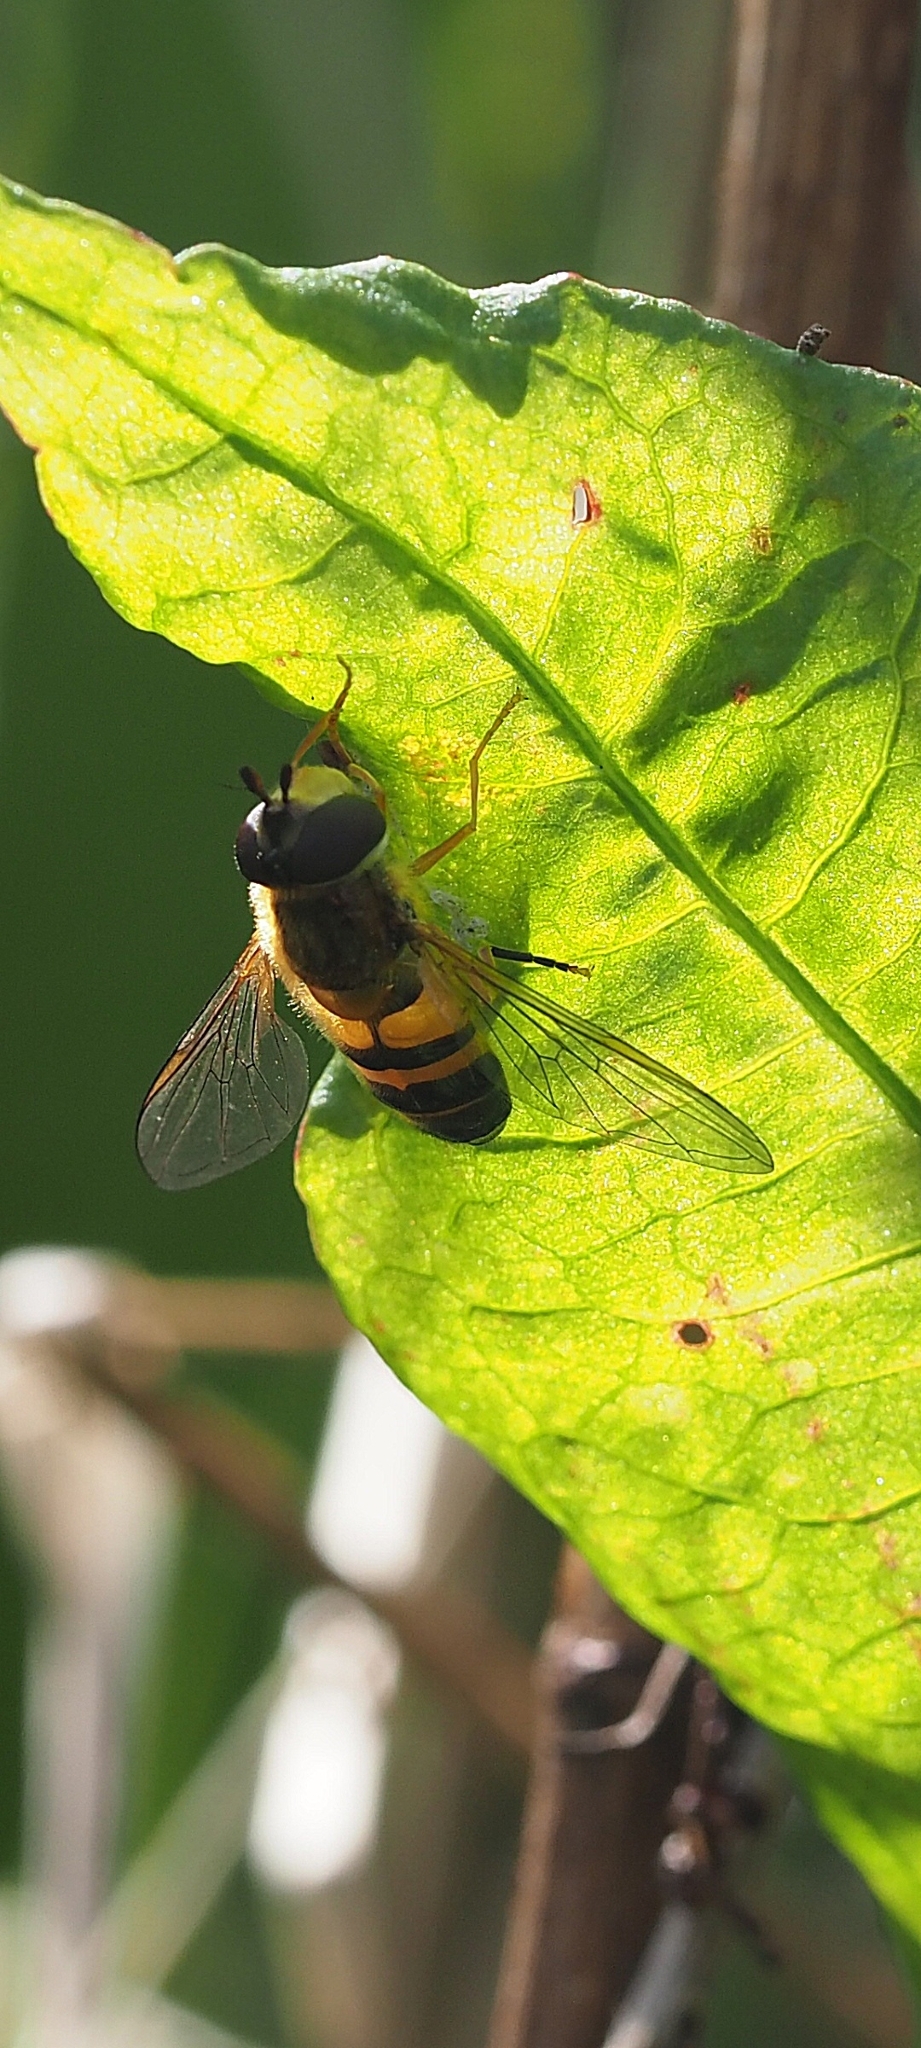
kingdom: Animalia
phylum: Arthropoda
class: Insecta
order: Diptera
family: Syrphidae
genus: Epistrophe
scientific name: Epistrophe eligans
